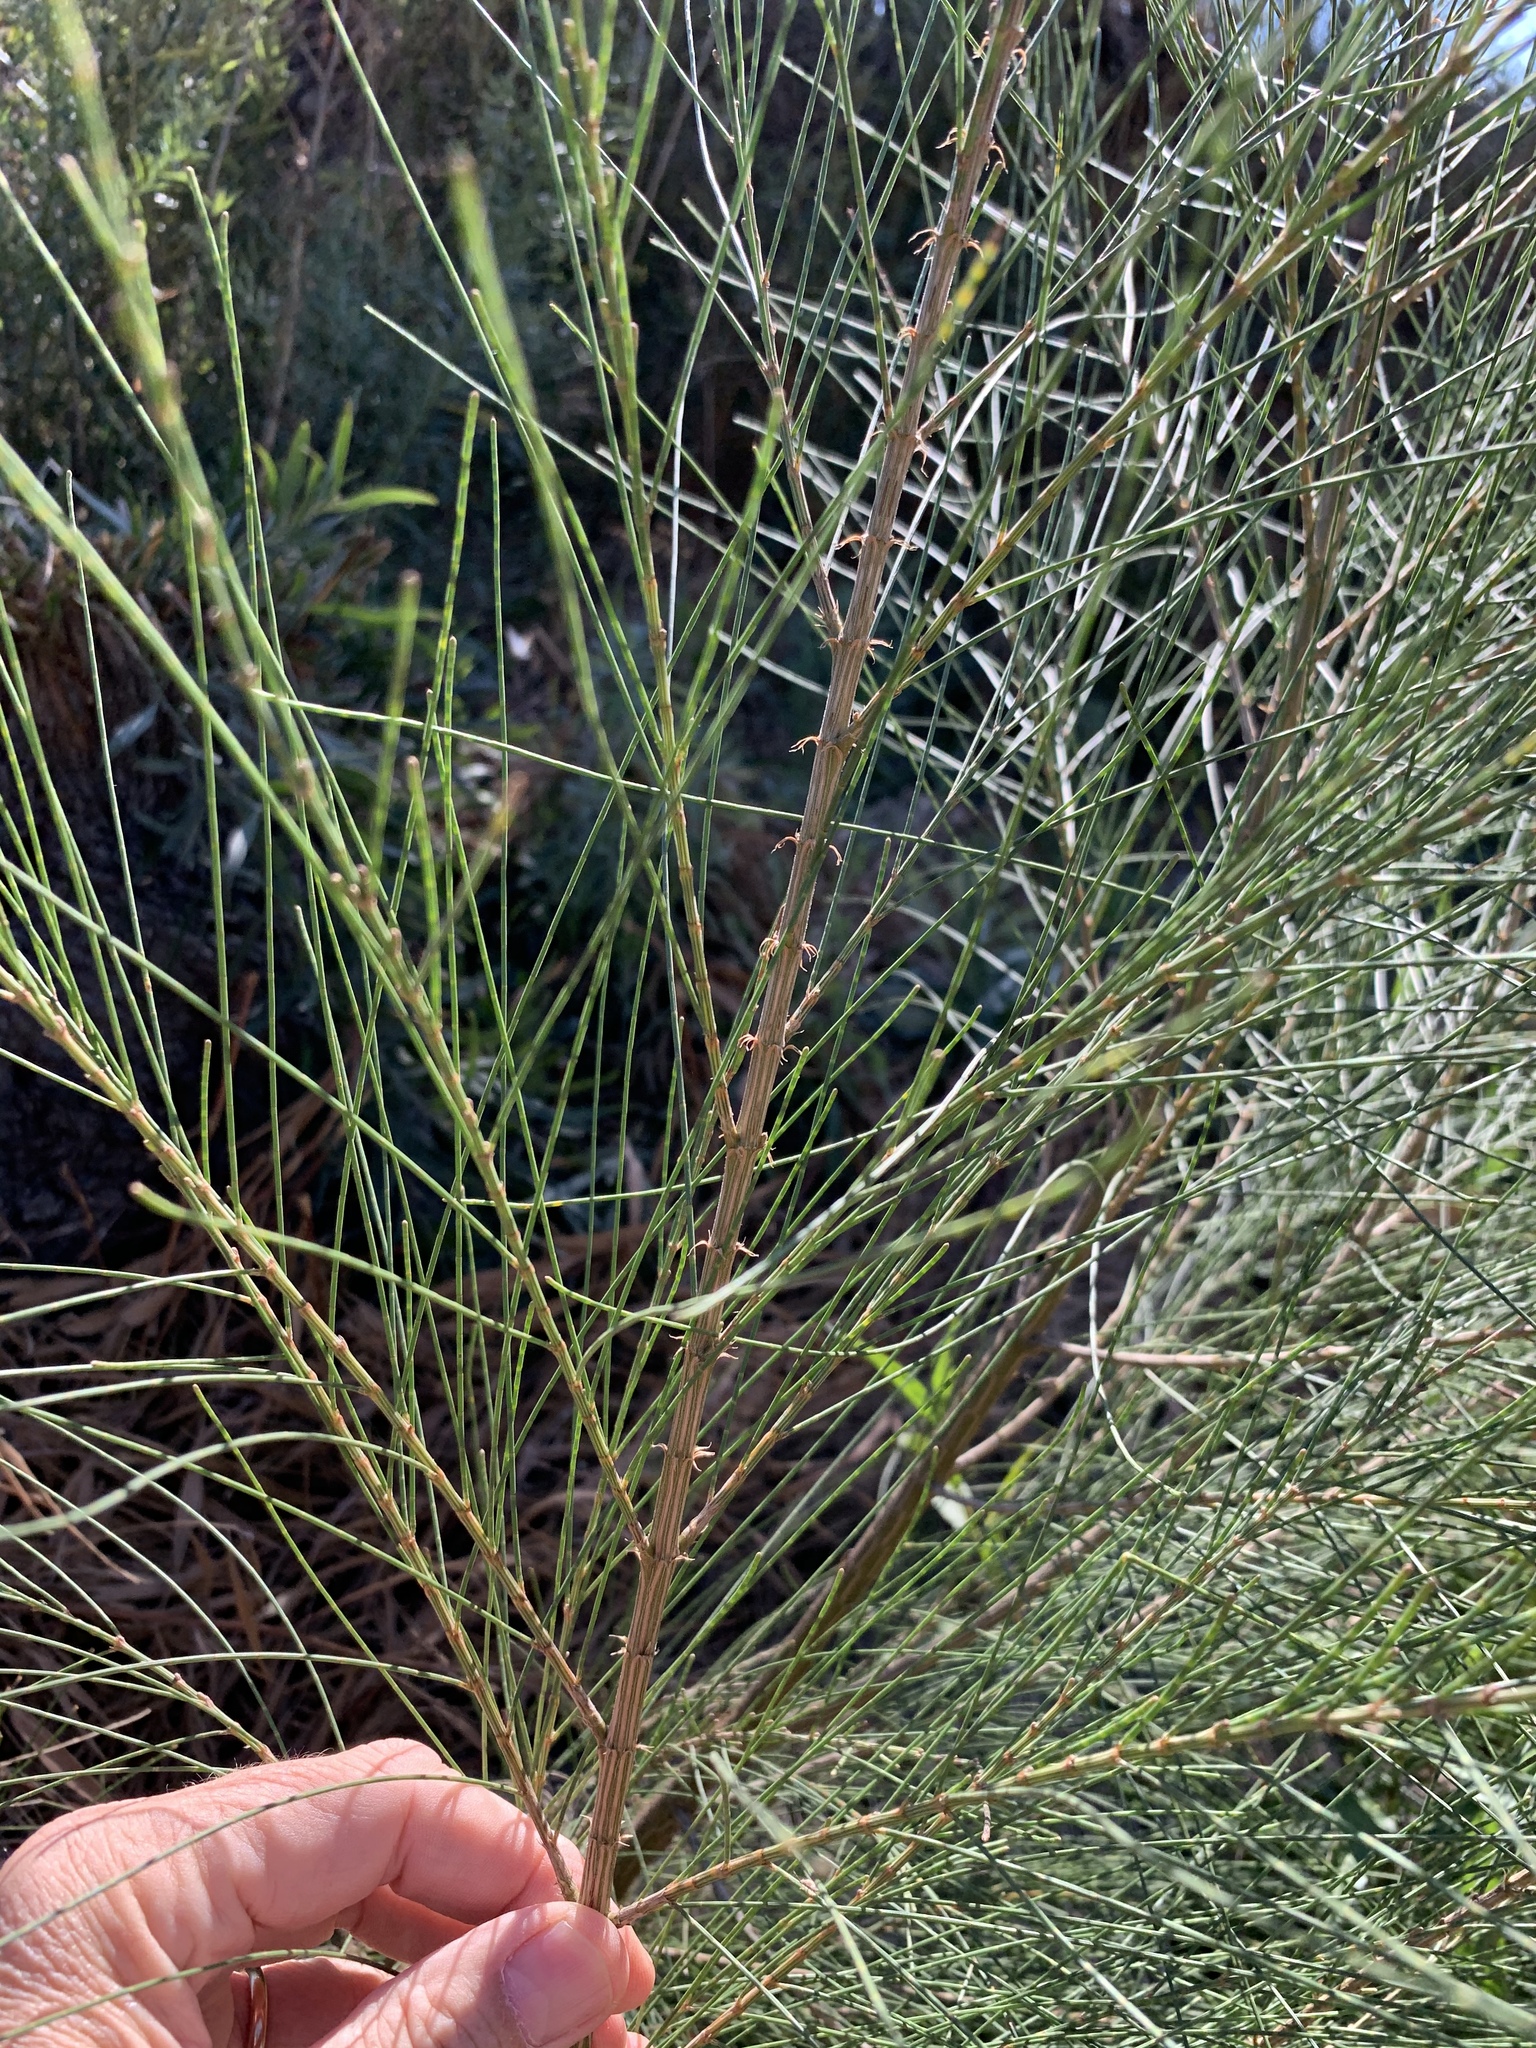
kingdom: Plantae
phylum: Tracheophyta
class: Magnoliopsida
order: Fagales
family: Casuarinaceae
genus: Casuarina
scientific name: Casuarina cunninghamiana
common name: River sheoak
